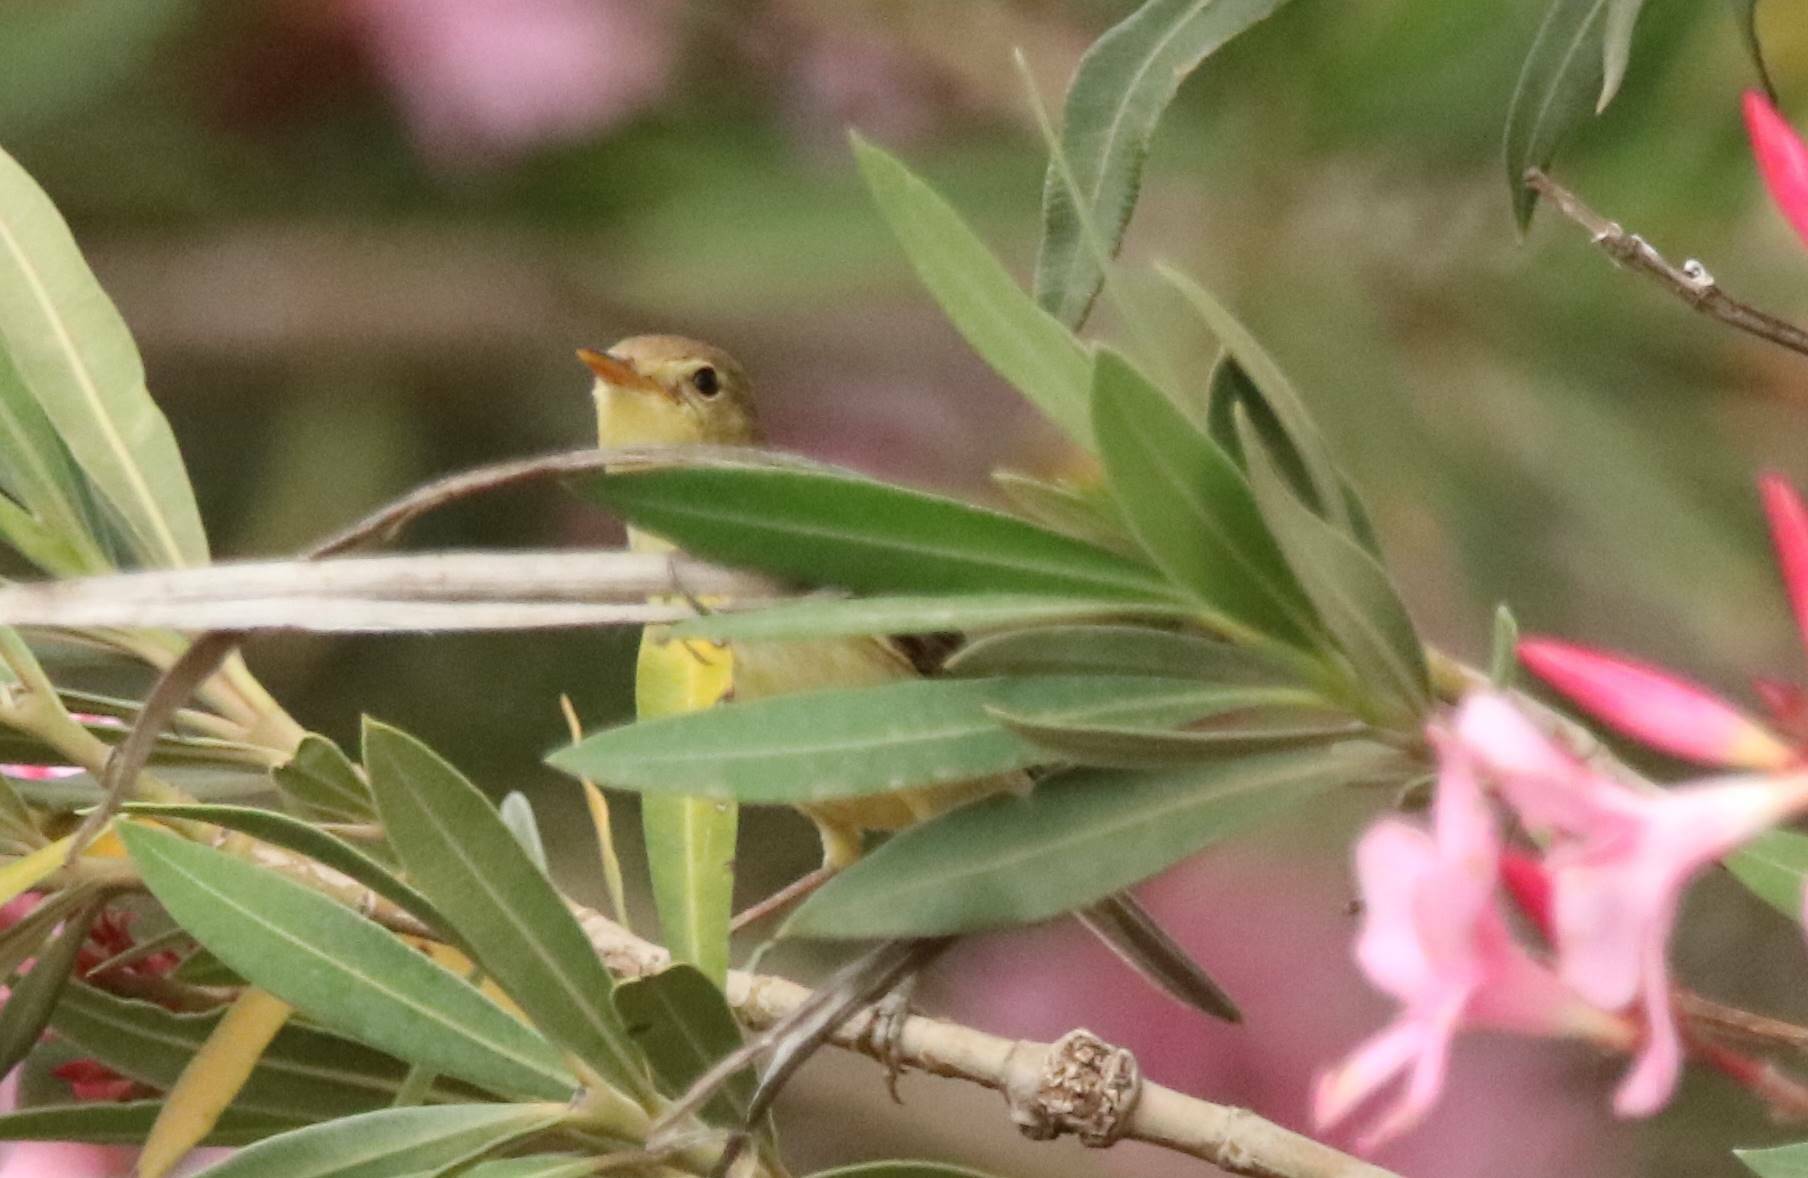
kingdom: Animalia
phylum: Chordata
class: Aves
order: Passeriformes
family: Acrocephalidae
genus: Hippolais
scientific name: Hippolais polyglotta
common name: Melodious warbler
